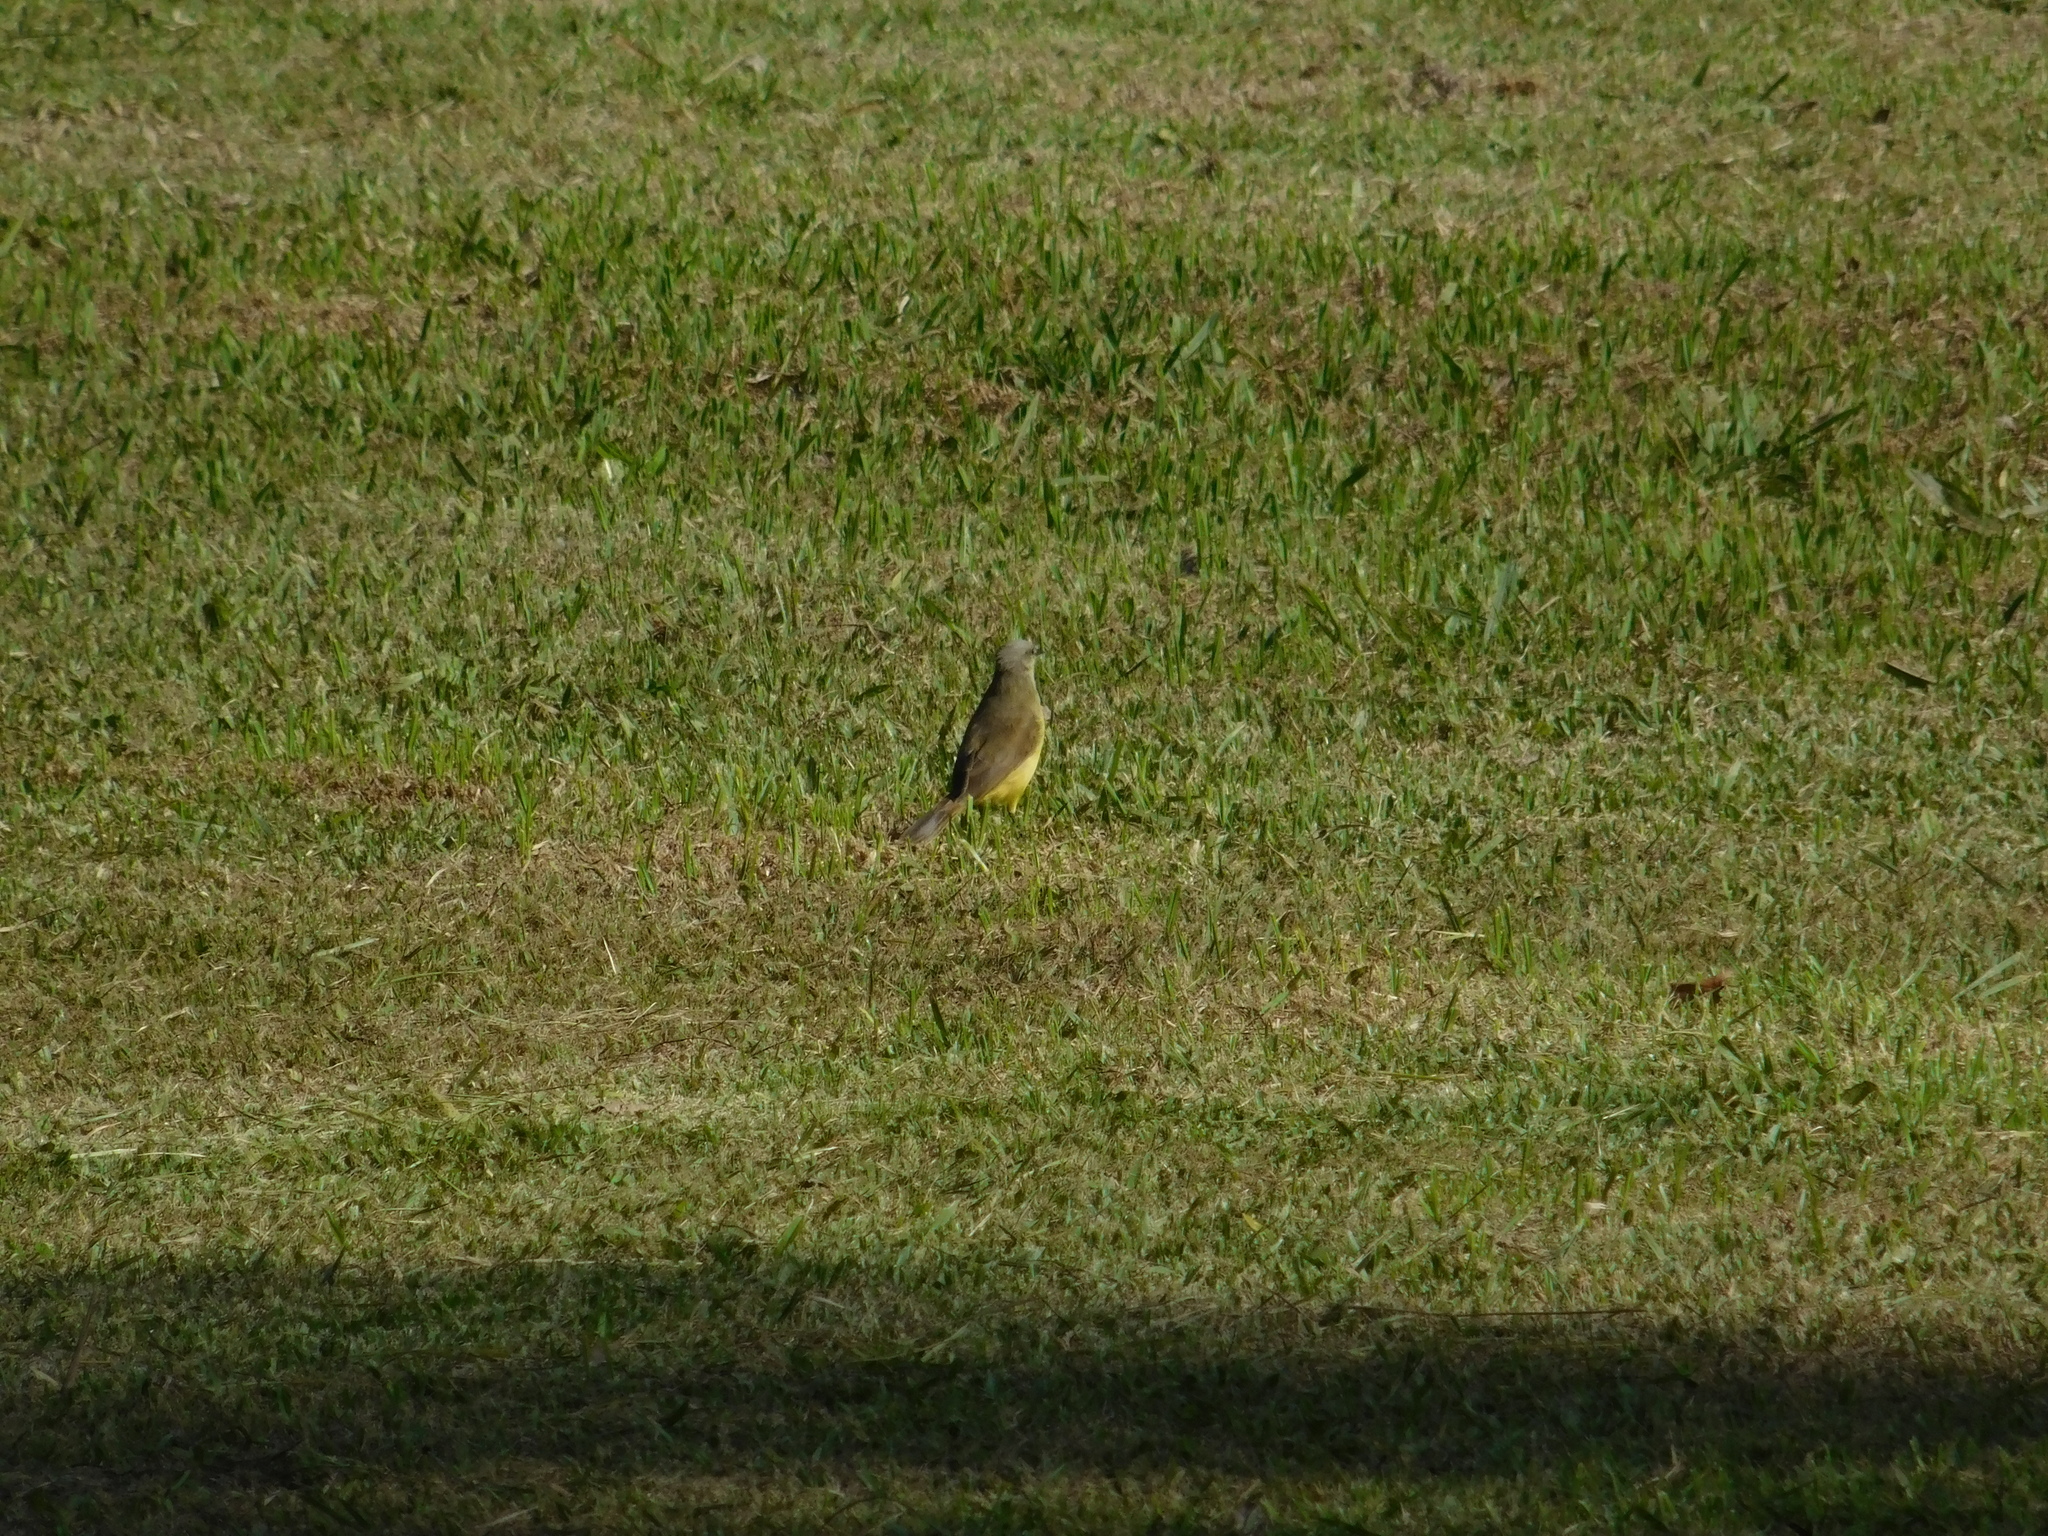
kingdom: Animalia
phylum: Chordata
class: Aves
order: Passeriformes
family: Tyrannidae
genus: Machetornis
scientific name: Machetornis rixosa
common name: Cattle tyrant
